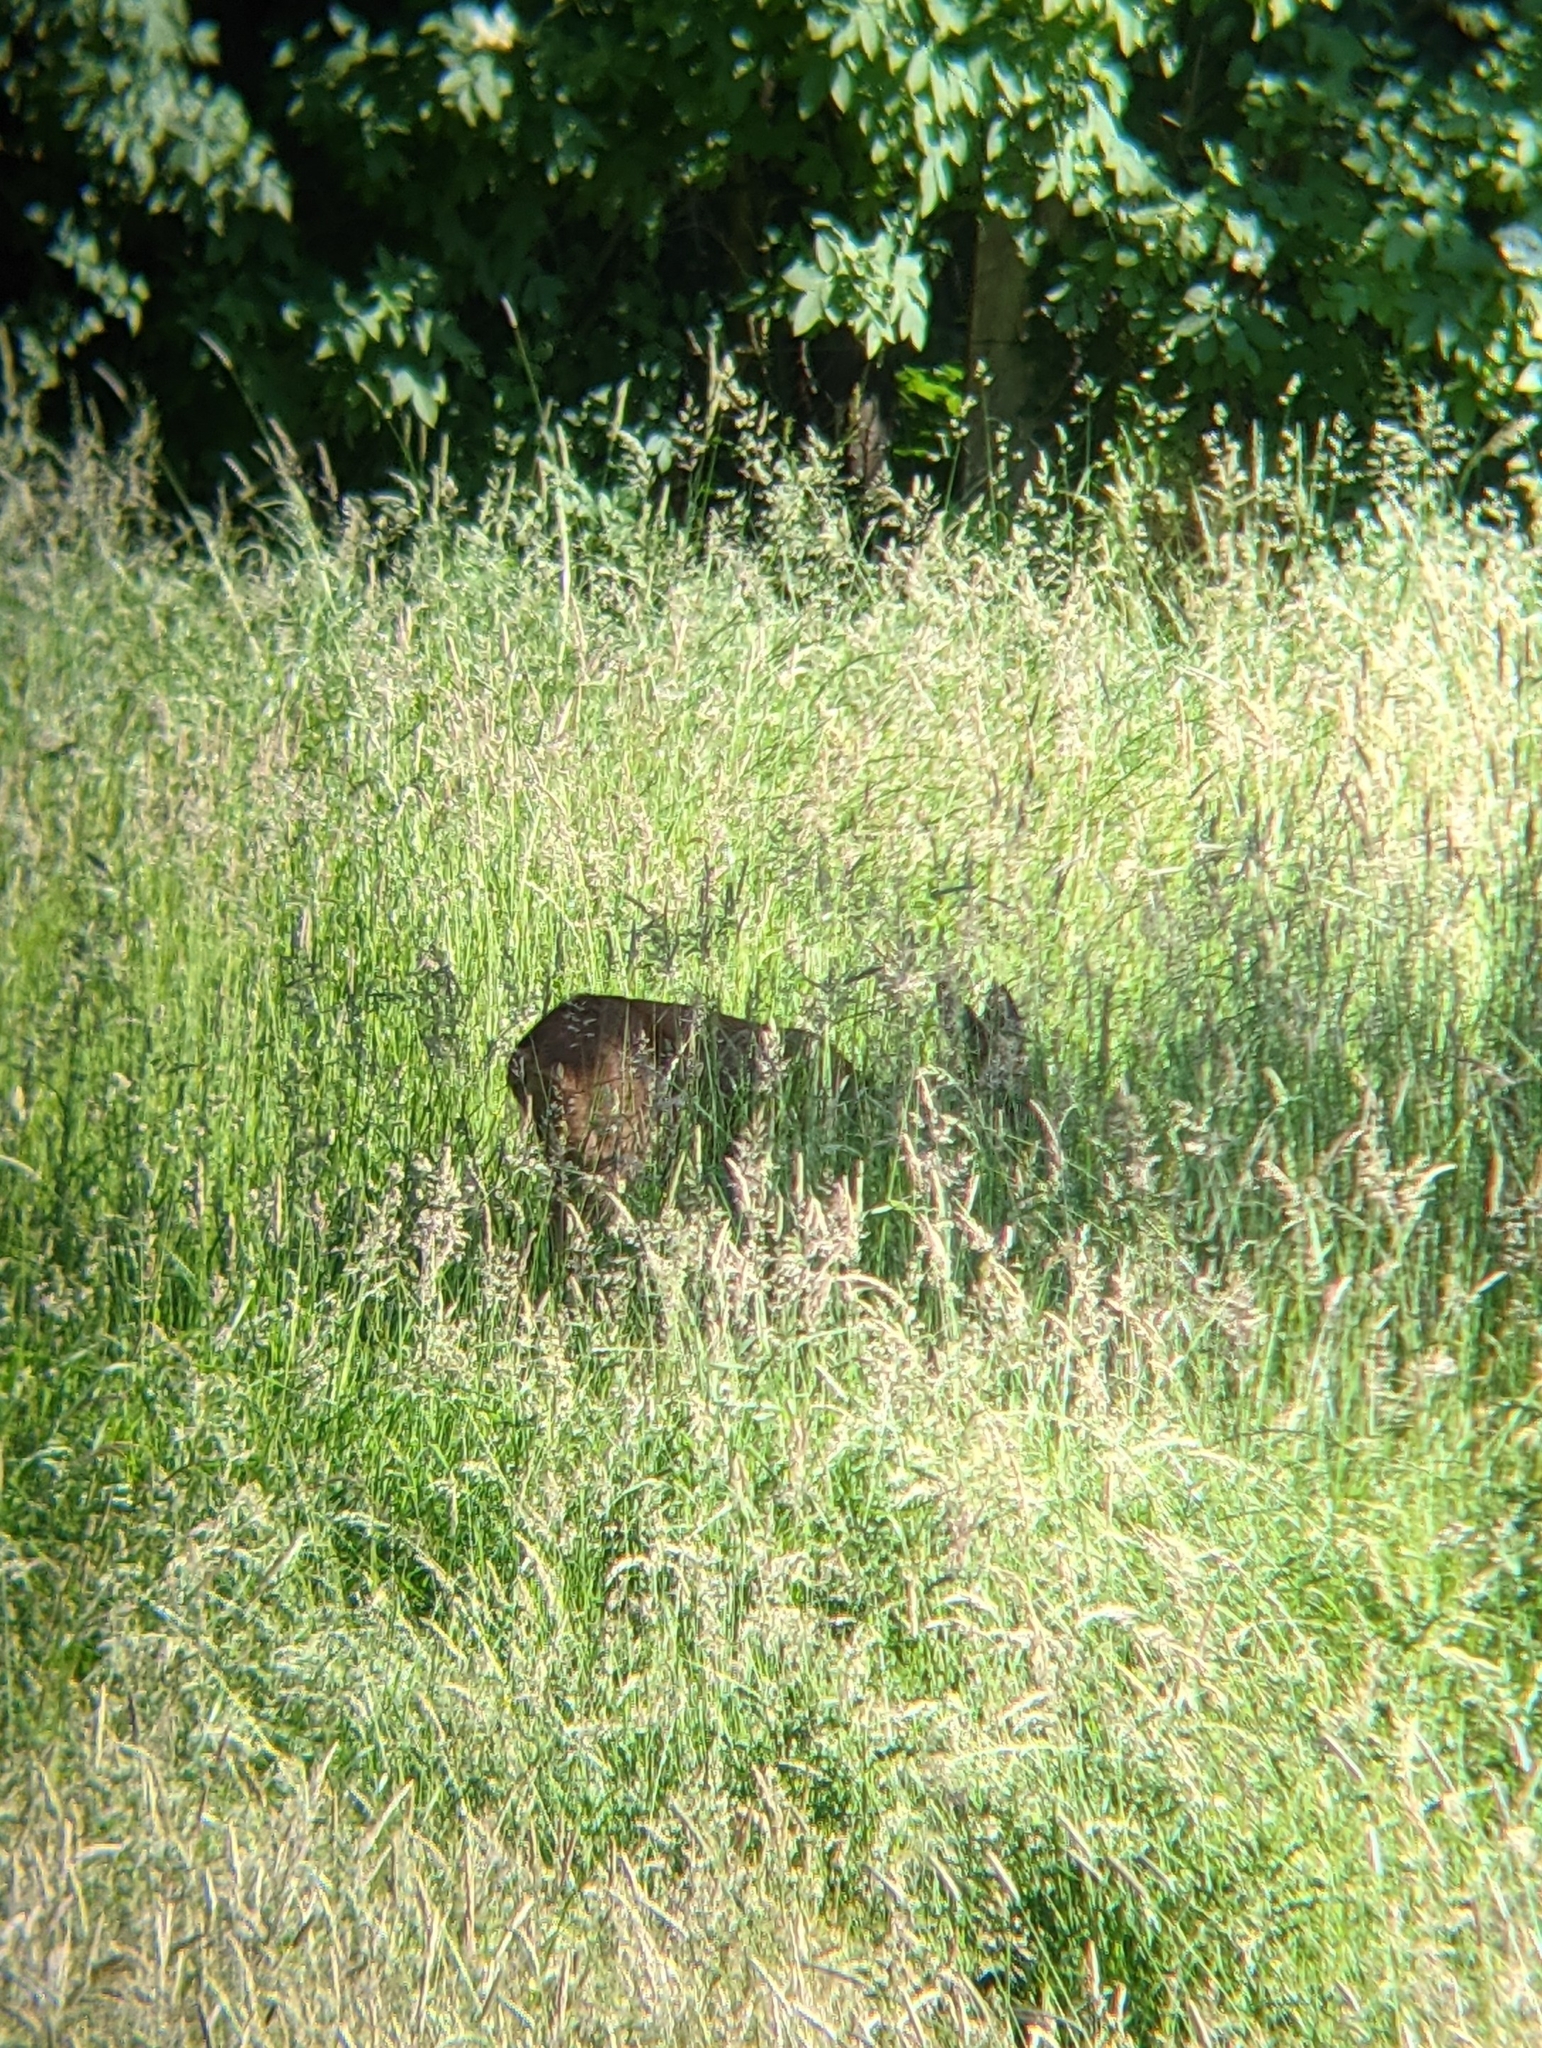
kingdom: Animalia
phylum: Chordata
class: Mammalia
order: Artiodactyla
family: Cervidae
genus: Capreolus
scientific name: Capreolus capreolus
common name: Western roe deer
